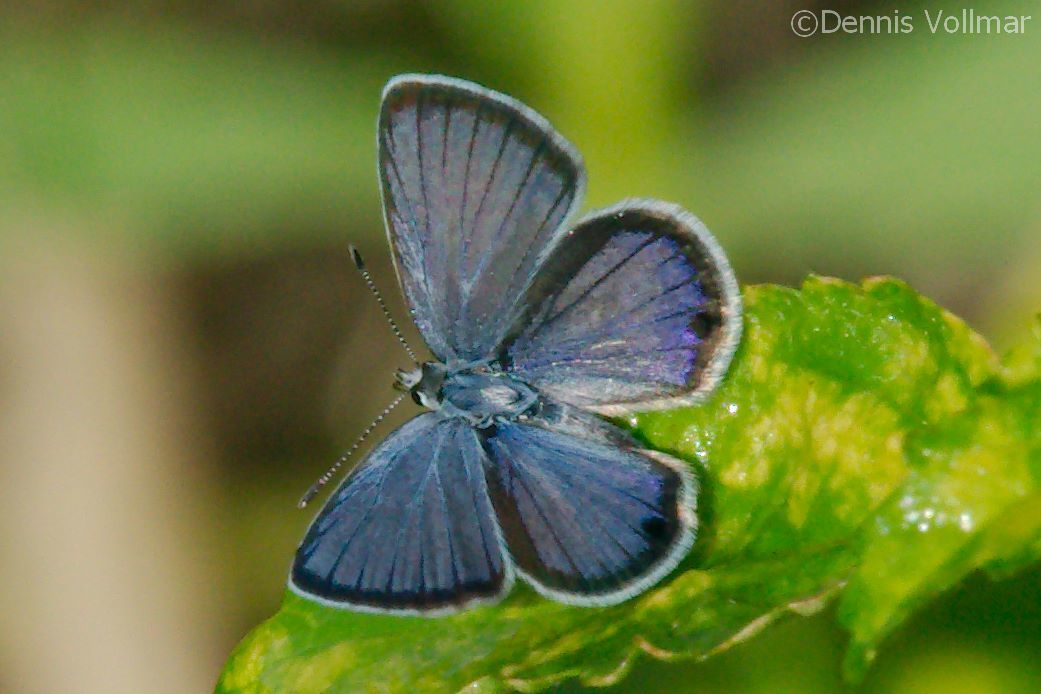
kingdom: Animalia
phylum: Arthropoda
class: Insecta
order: Lepidoptera
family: Lycaenidae
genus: Hemiargus
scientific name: Hemiargus ceraunus
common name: Ceraunus blue
